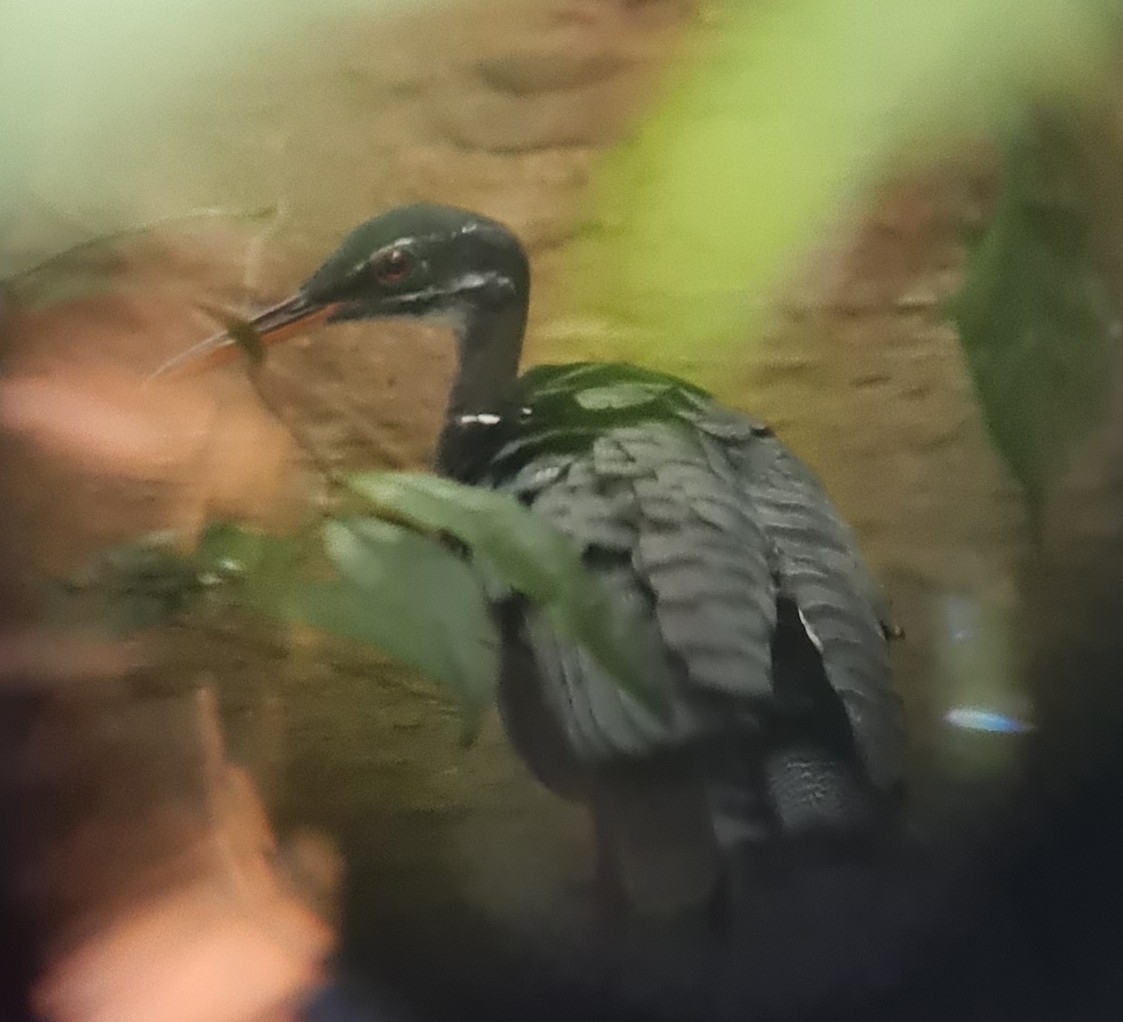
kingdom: Animalia
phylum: Chordata
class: Aves
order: Eurypygiformes
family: Eurypygidae
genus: Eurypyga
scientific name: Eurypyga helias
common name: Sunbittern
